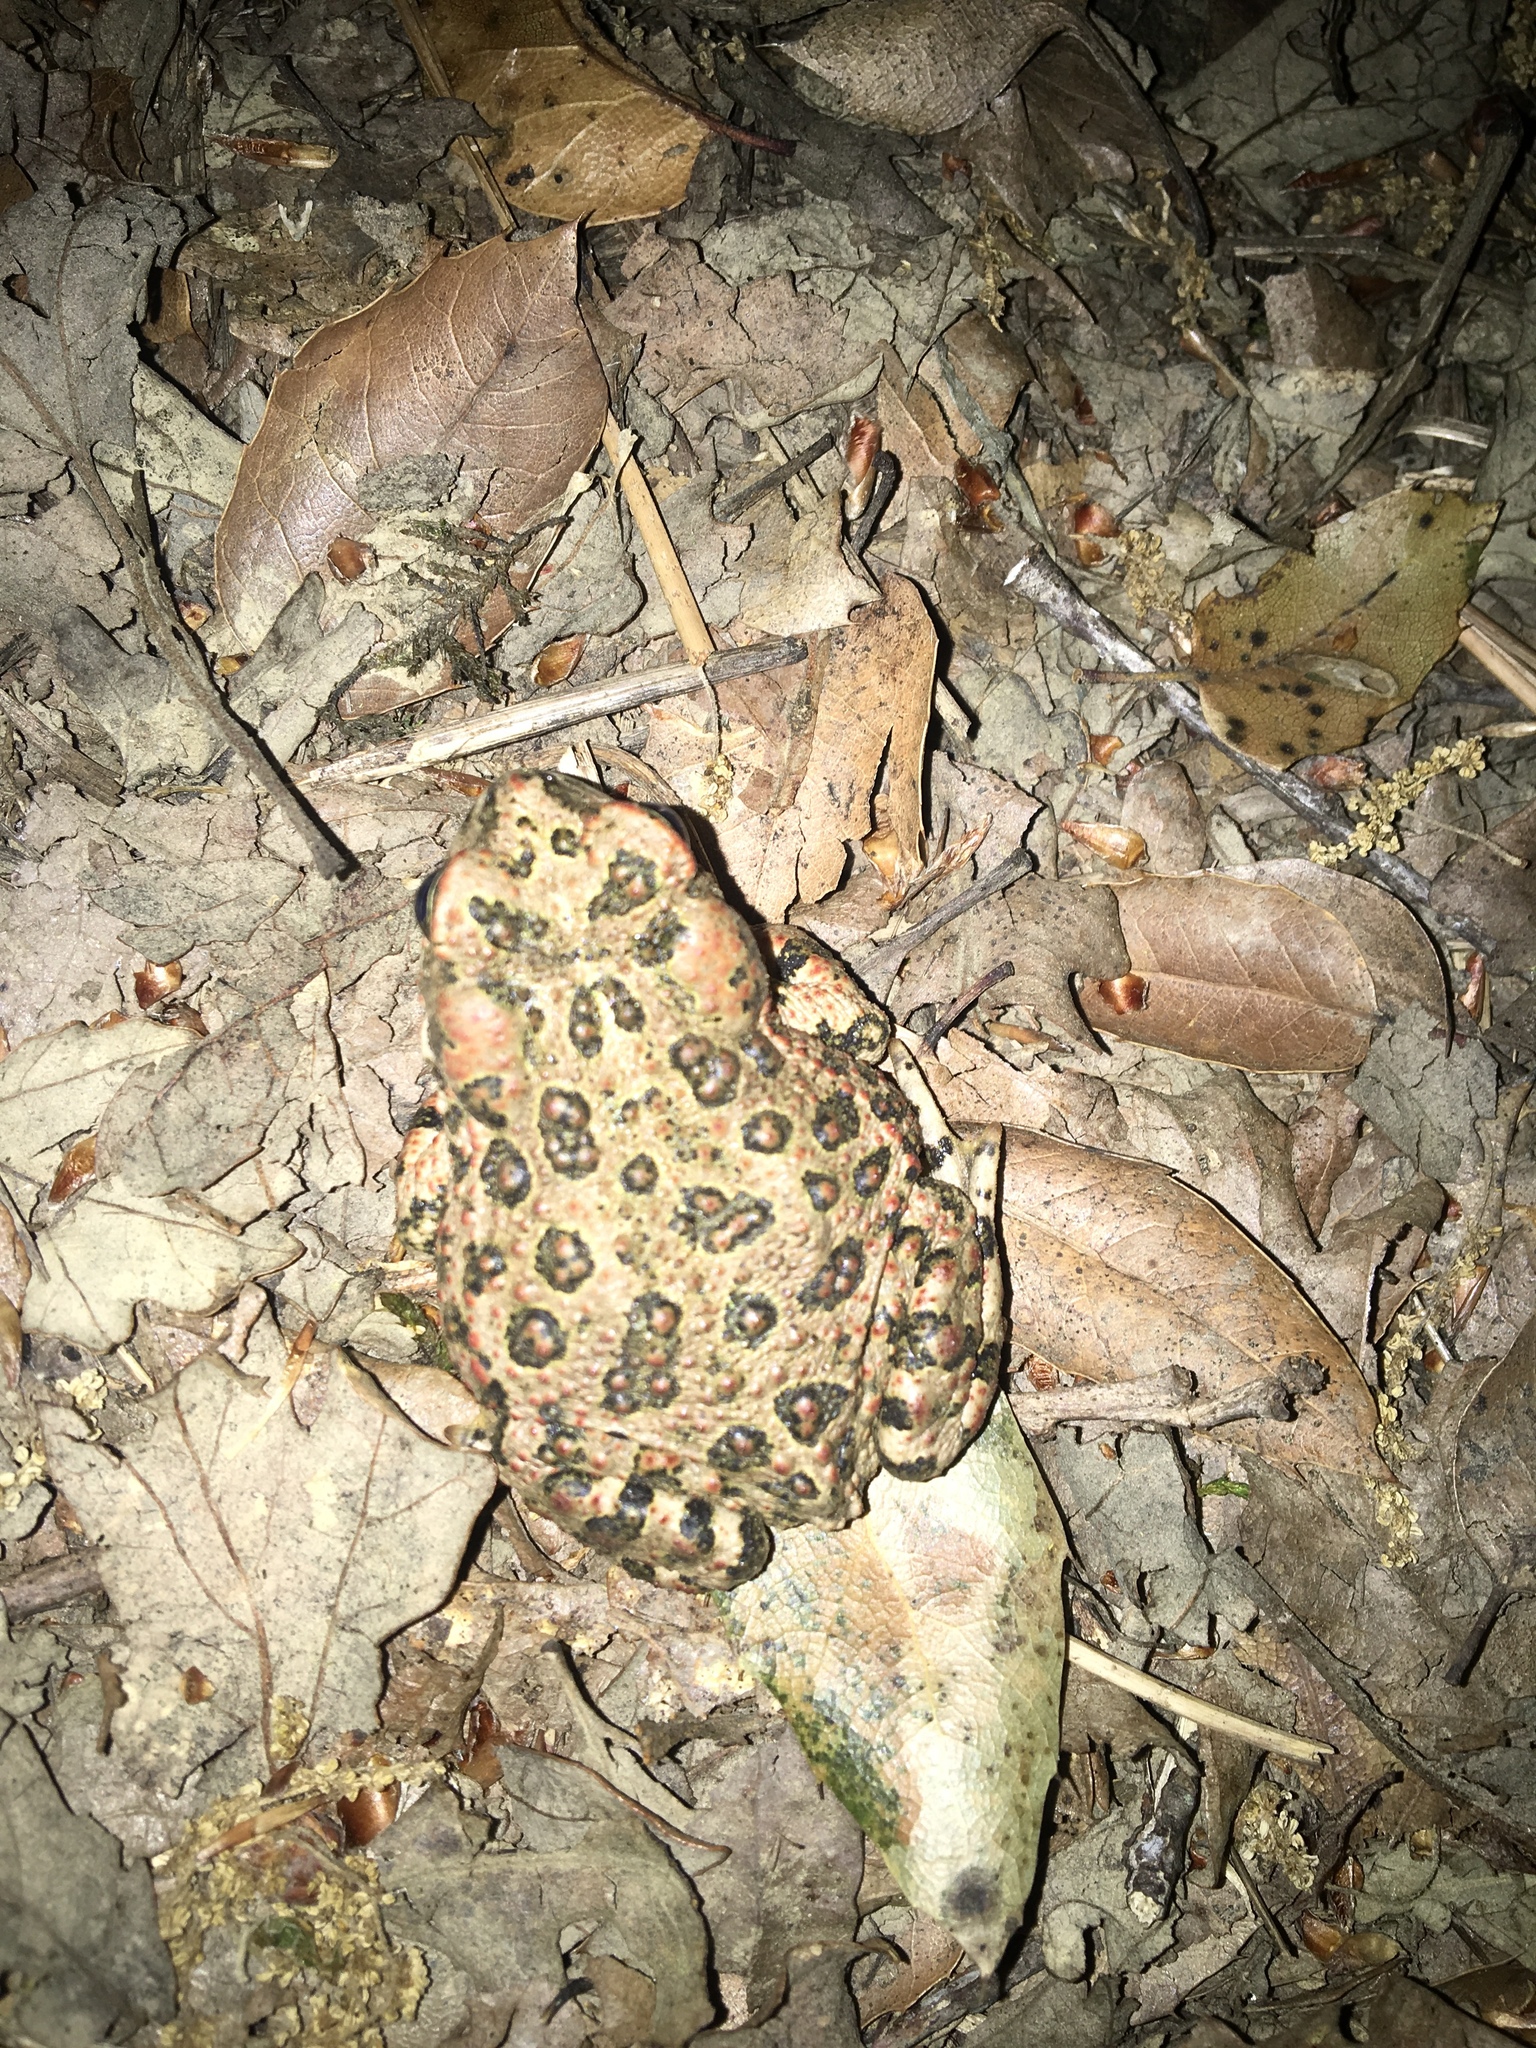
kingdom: Animalia
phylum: Chordata
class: Amphibia
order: Anura
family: Bufonidae
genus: Anaxyrus
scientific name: Anaxyrus boreas
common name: Western toad
